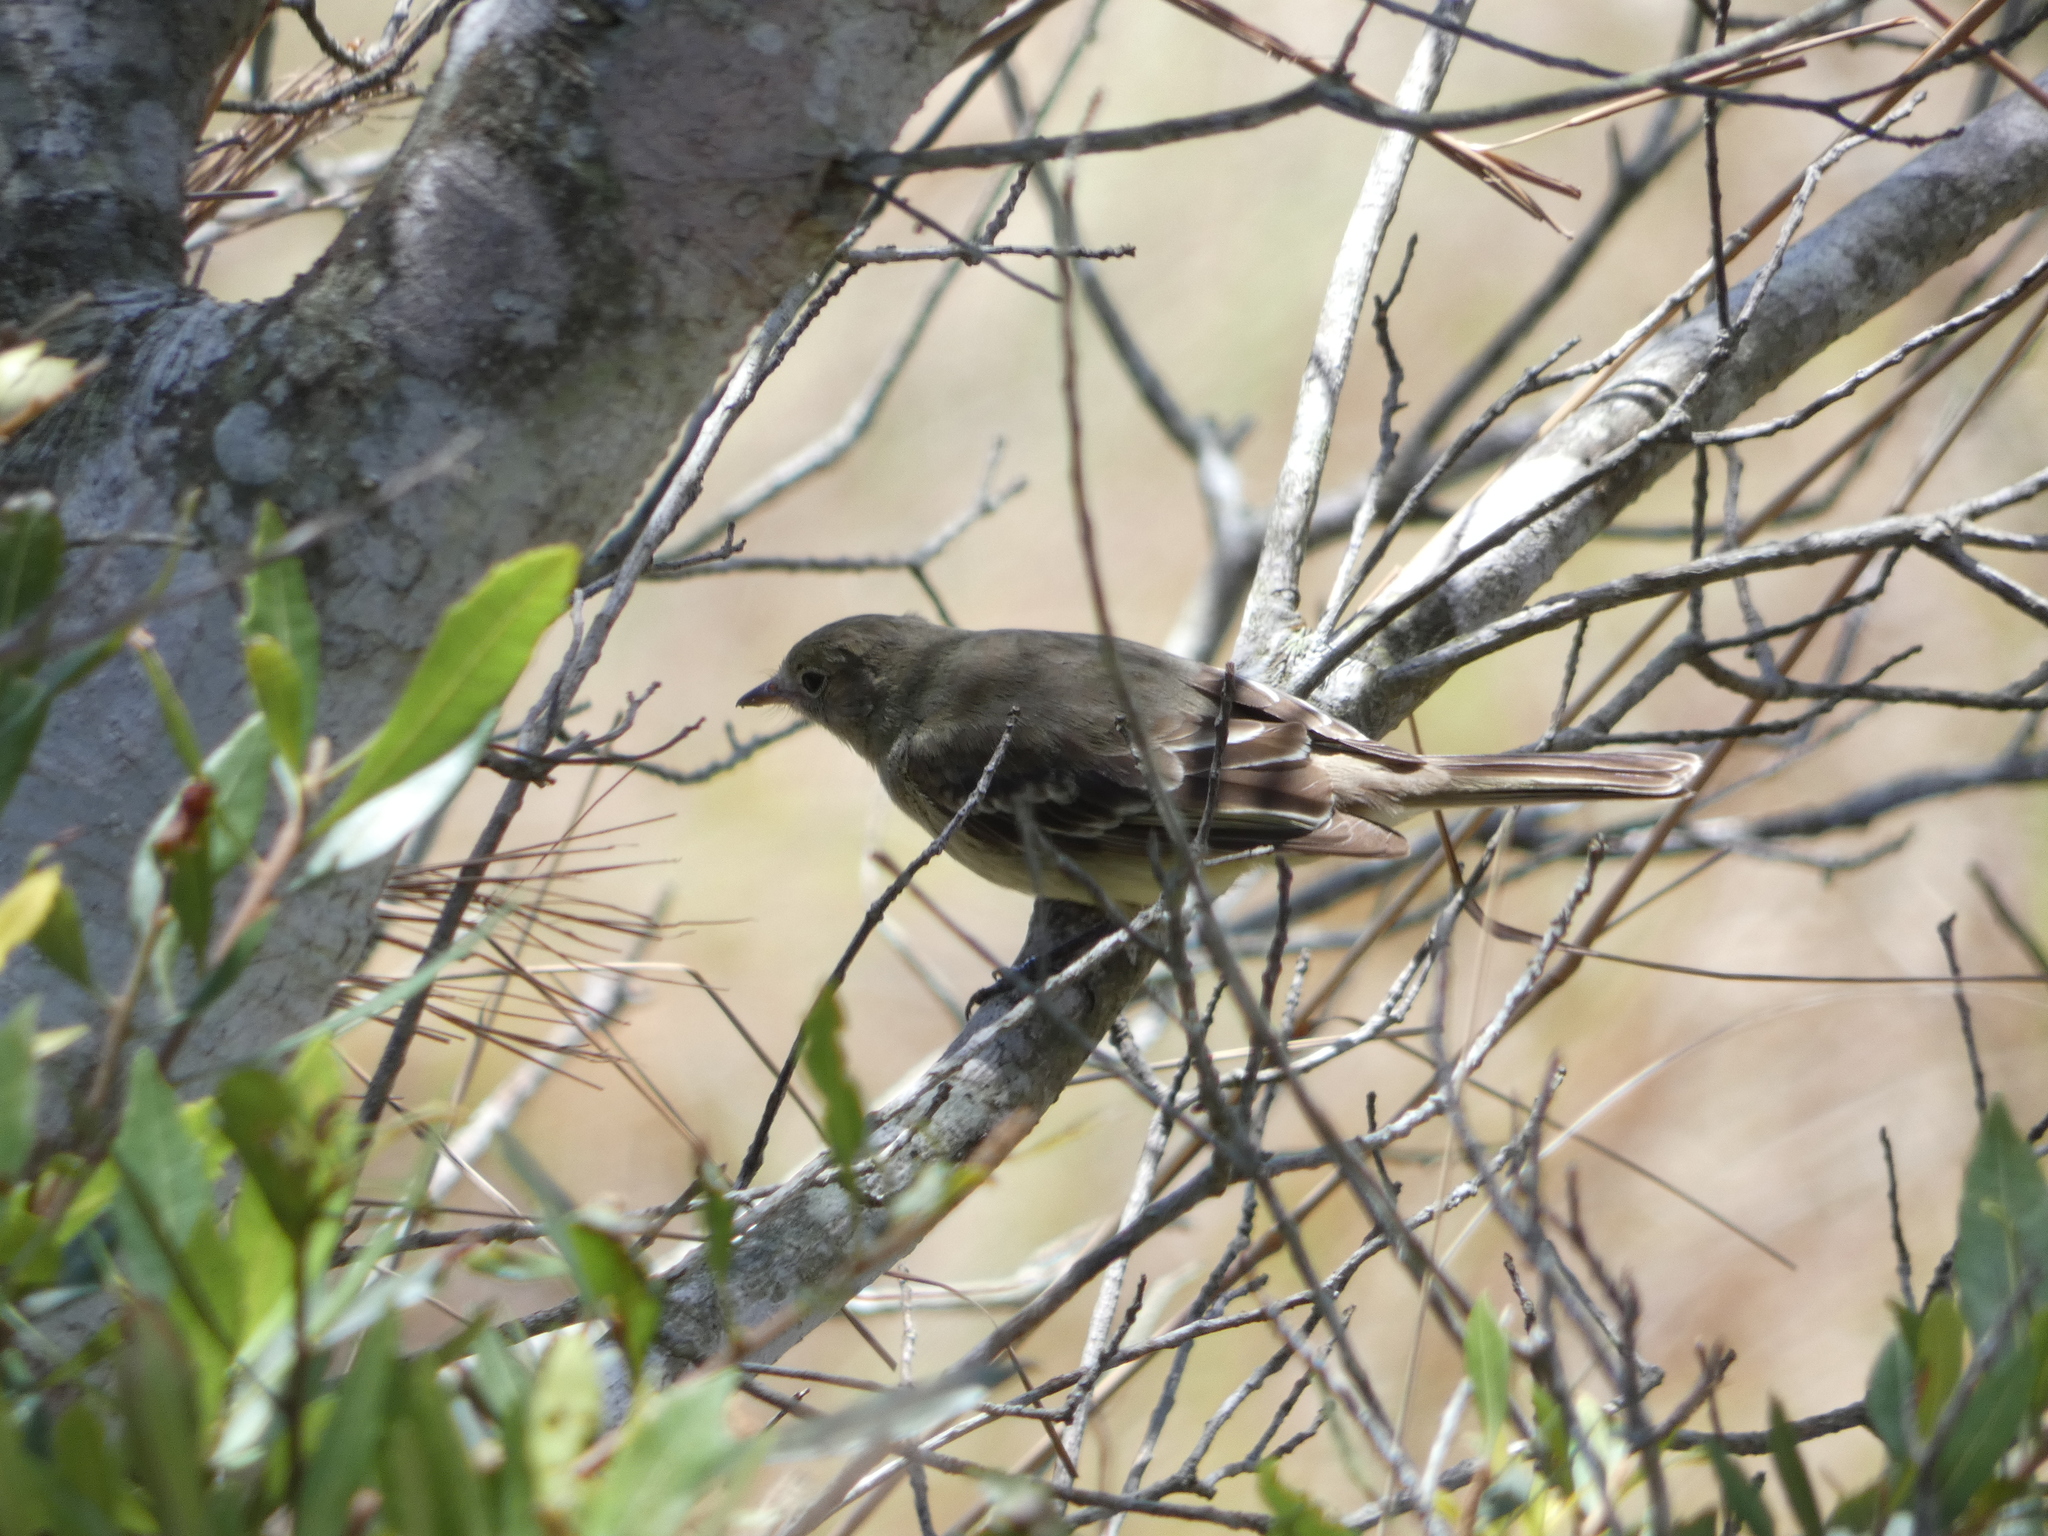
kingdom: Animalia
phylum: Chordata
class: Aves
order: Passeriformes
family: Tyrannidae
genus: Elaenia
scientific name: Elaenia chiriquensis
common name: Lesser elaenia
